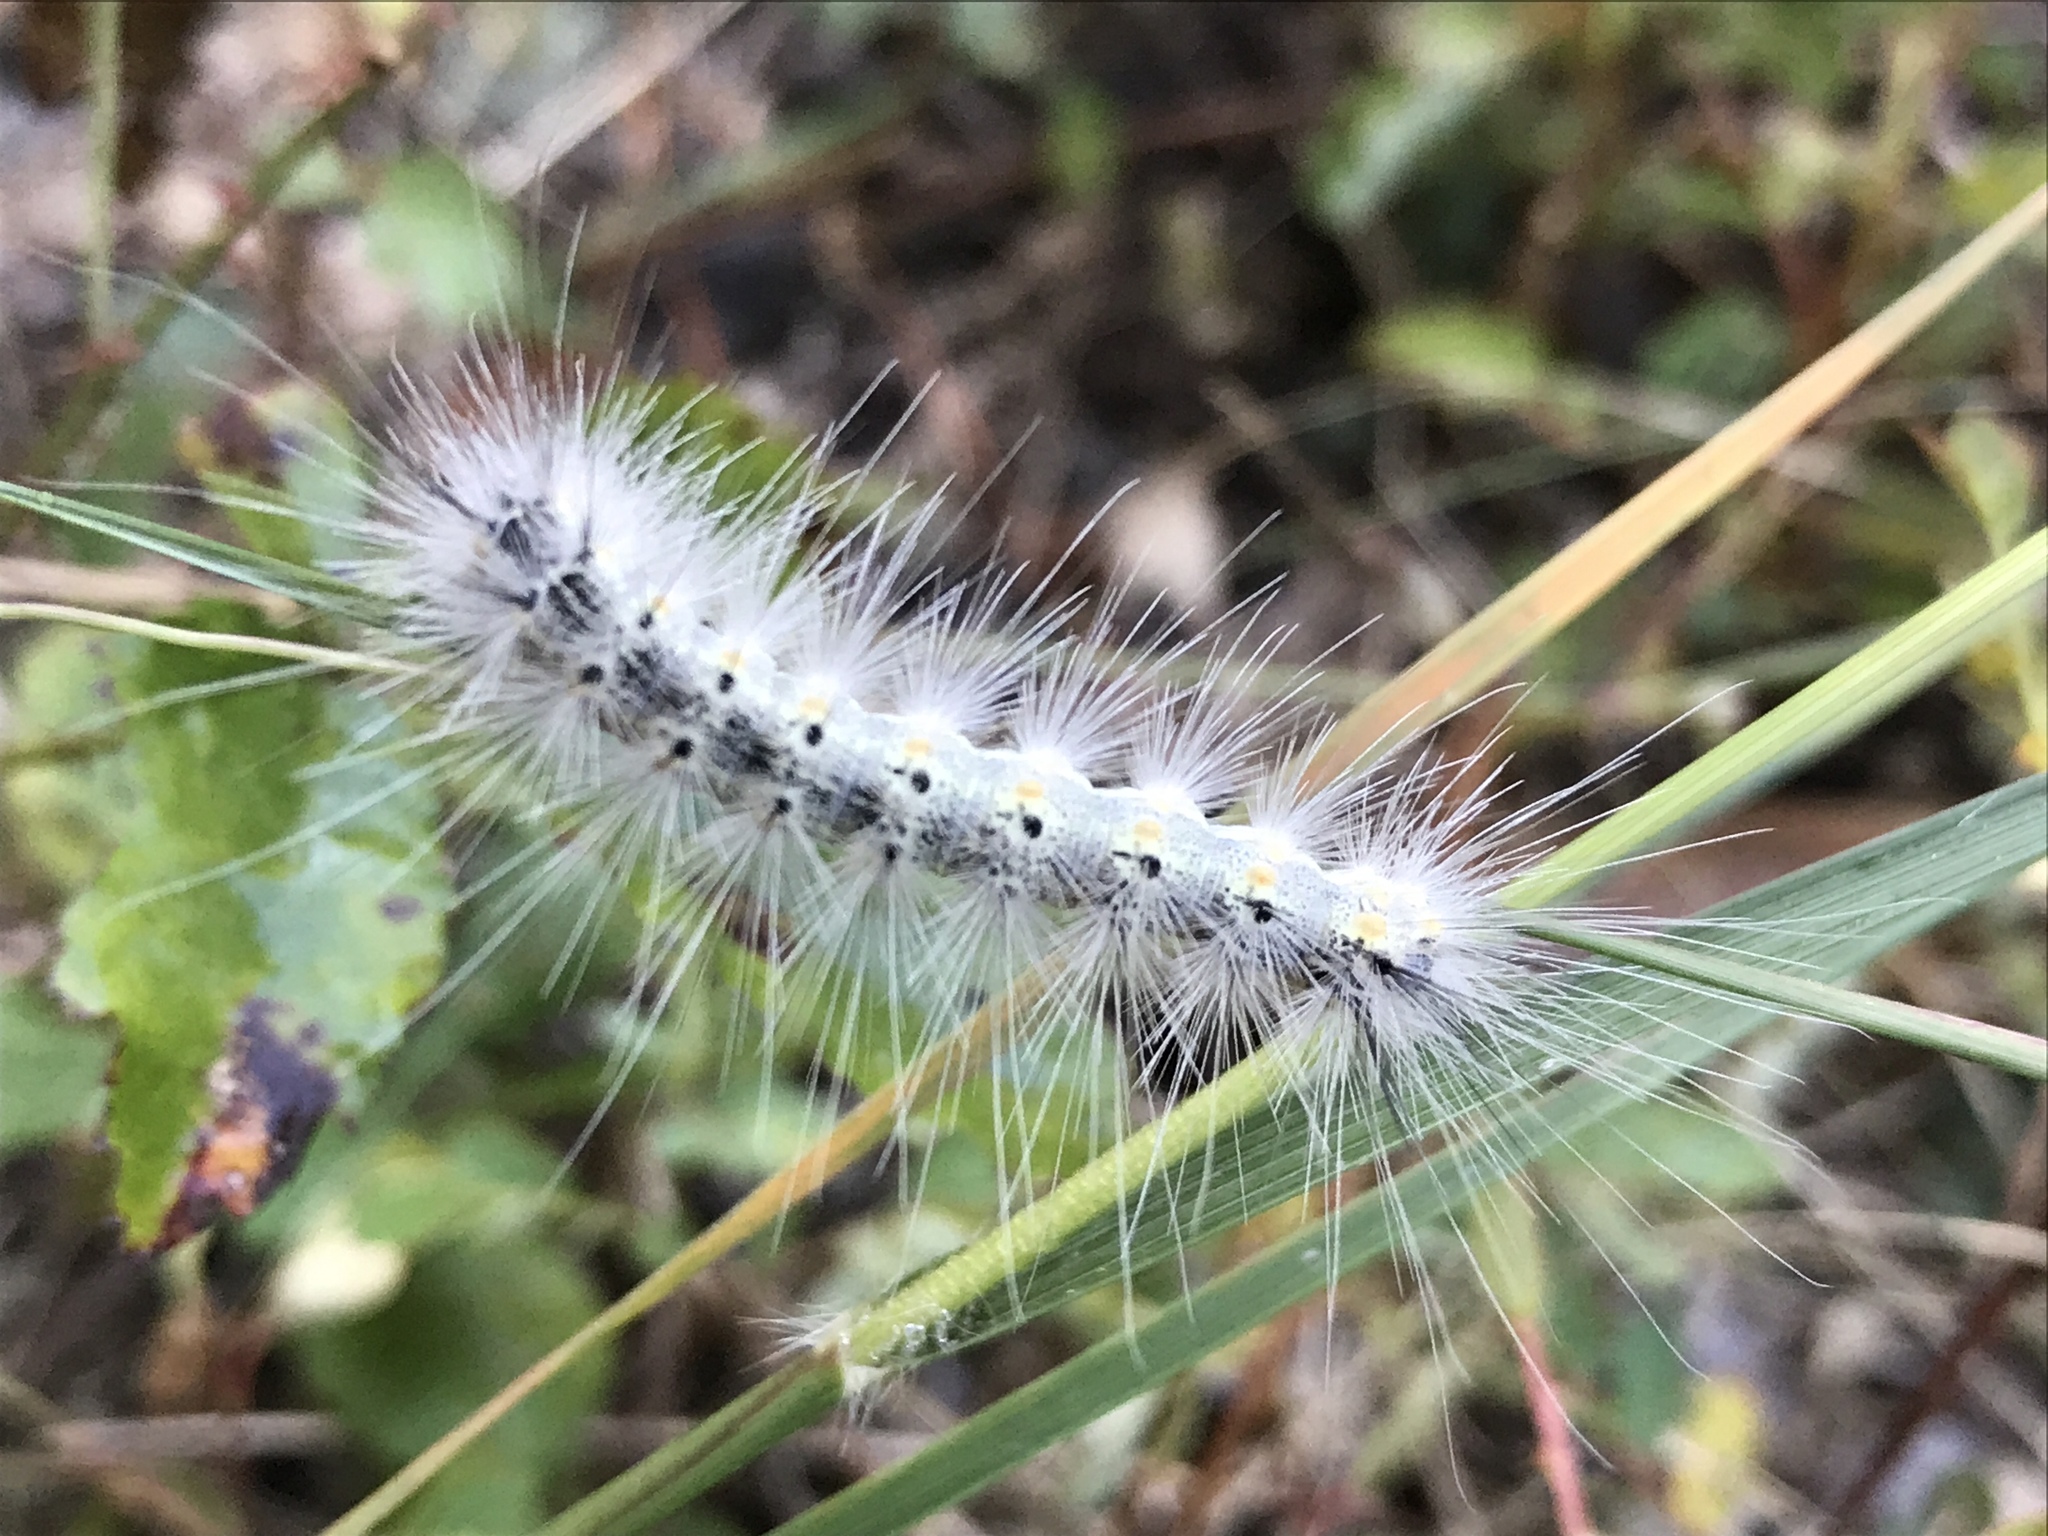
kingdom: Animalia
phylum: Arthropoda
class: Insecta
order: Lepidoptera
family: Erebidae
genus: Hyphantria
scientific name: Hyphantria cunea
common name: American white moth
